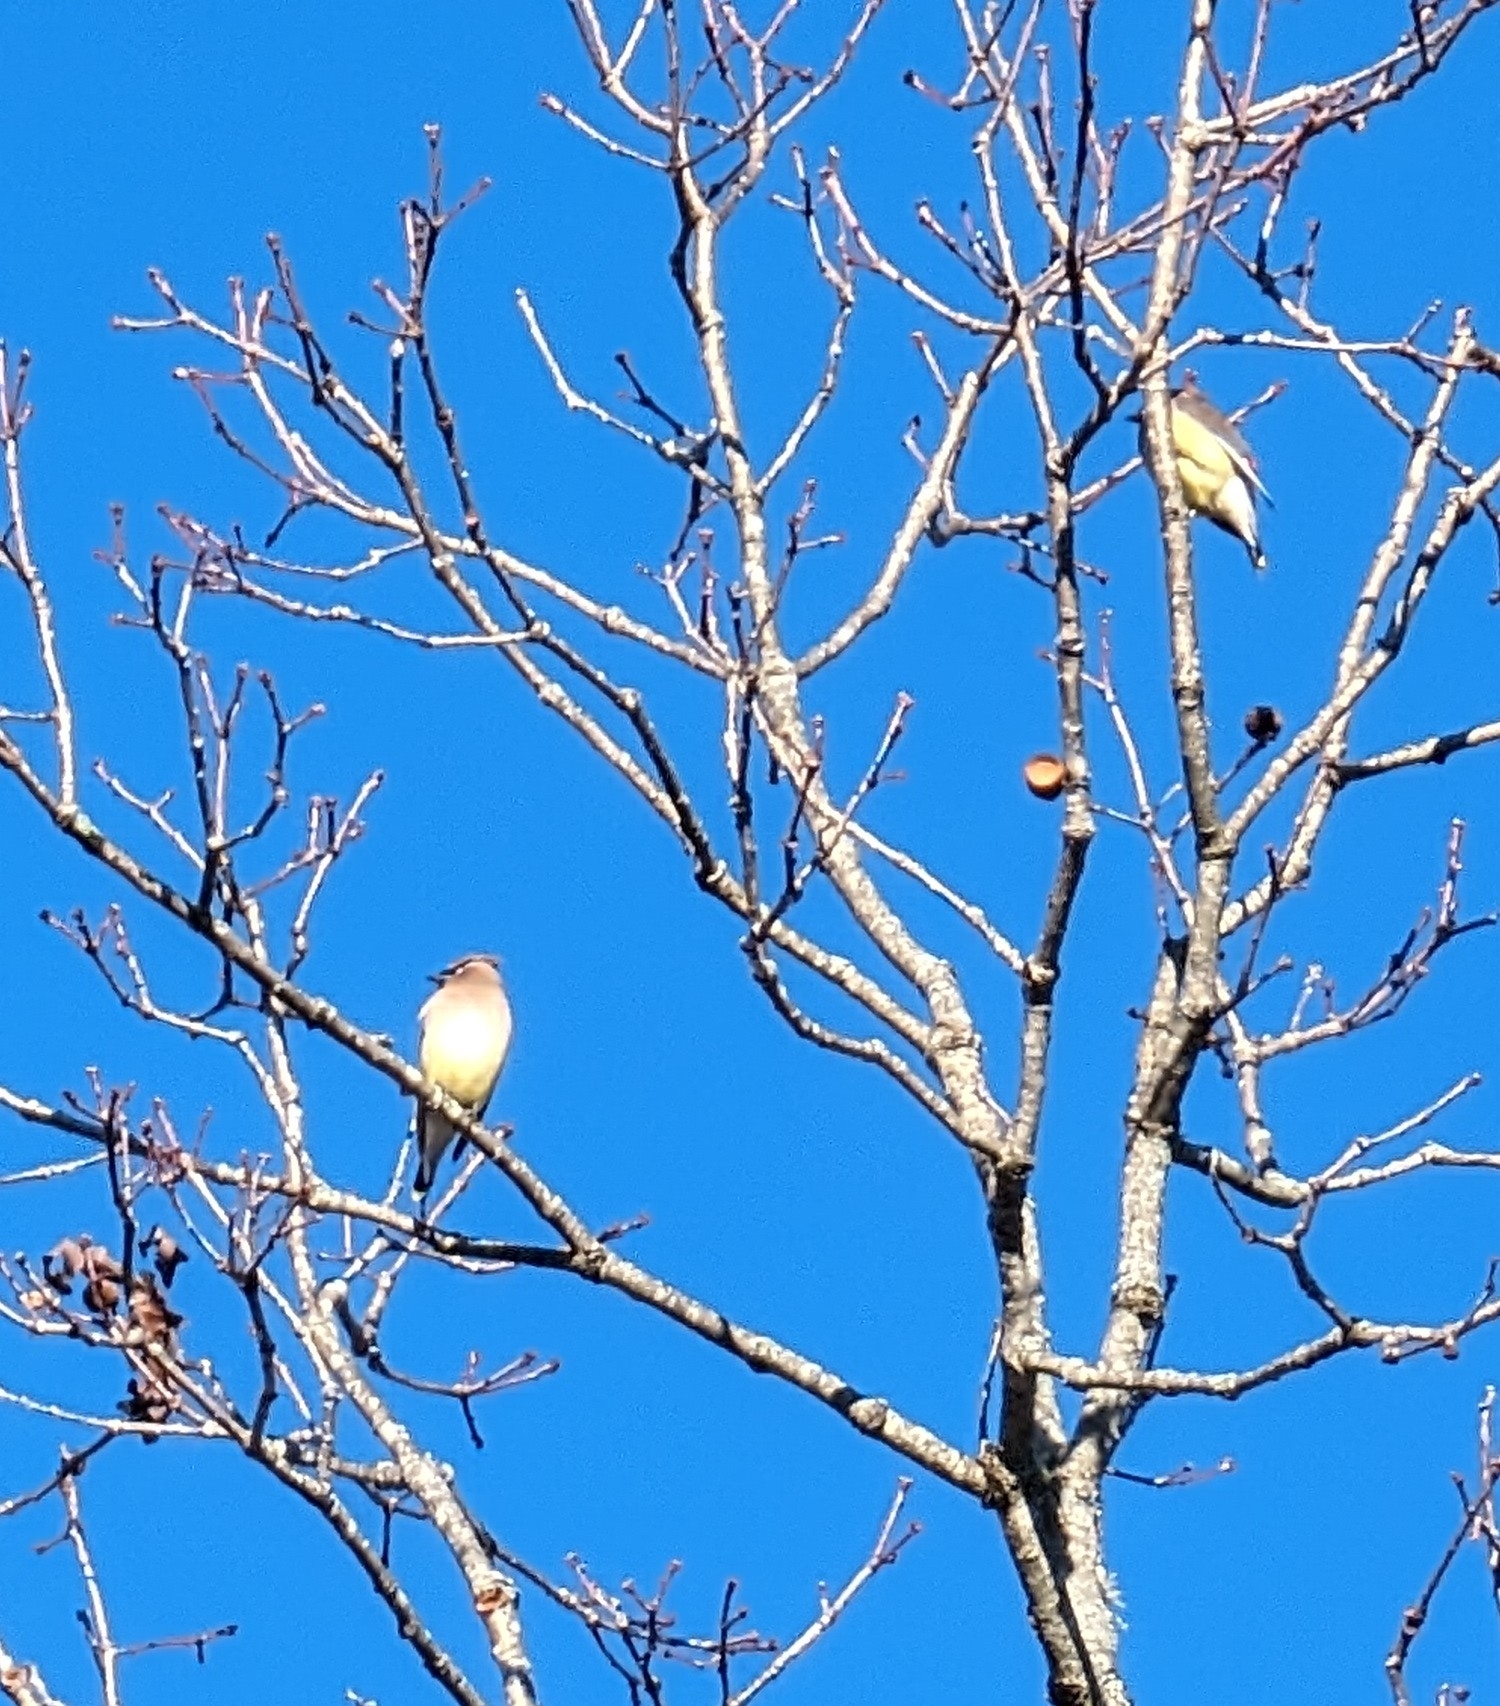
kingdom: Animalia
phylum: Chordata
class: Aves
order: Passeriformes
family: Bombycillidae
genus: Bombycilla
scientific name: Bombycilla cedrorum
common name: Cedar waxwing
